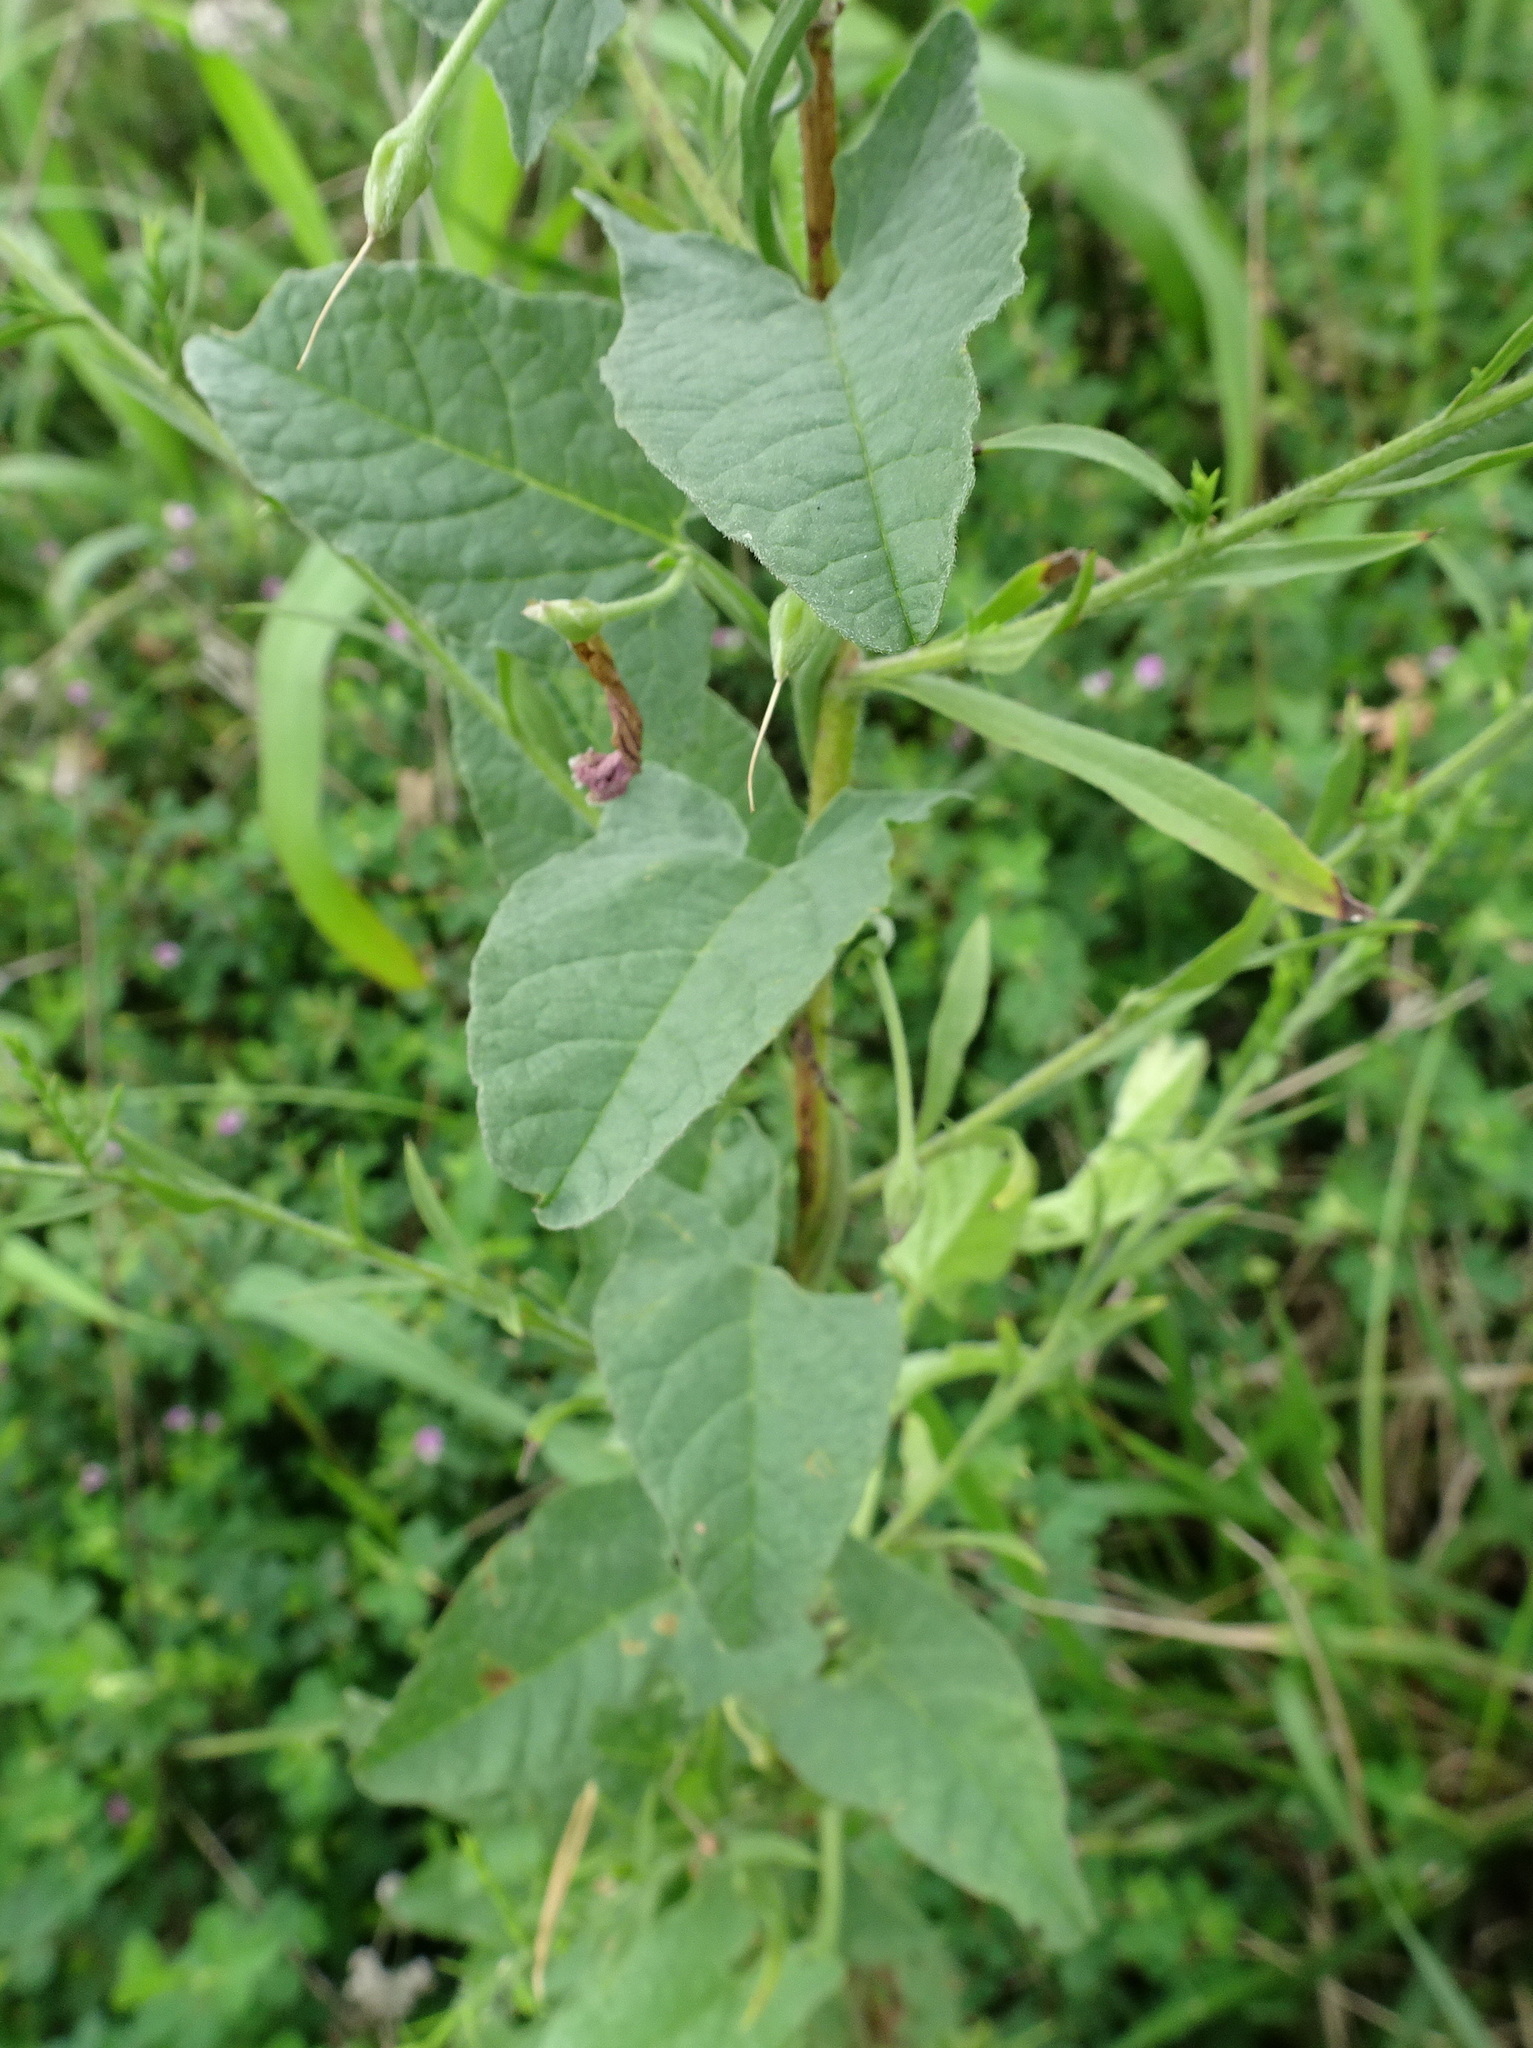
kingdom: Plantae
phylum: Tracheophyta
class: Magnoliopsida
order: Solanales
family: Convolvulaceae
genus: Convolvulus
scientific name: Convolvulus arvensis
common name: Field bindweed
